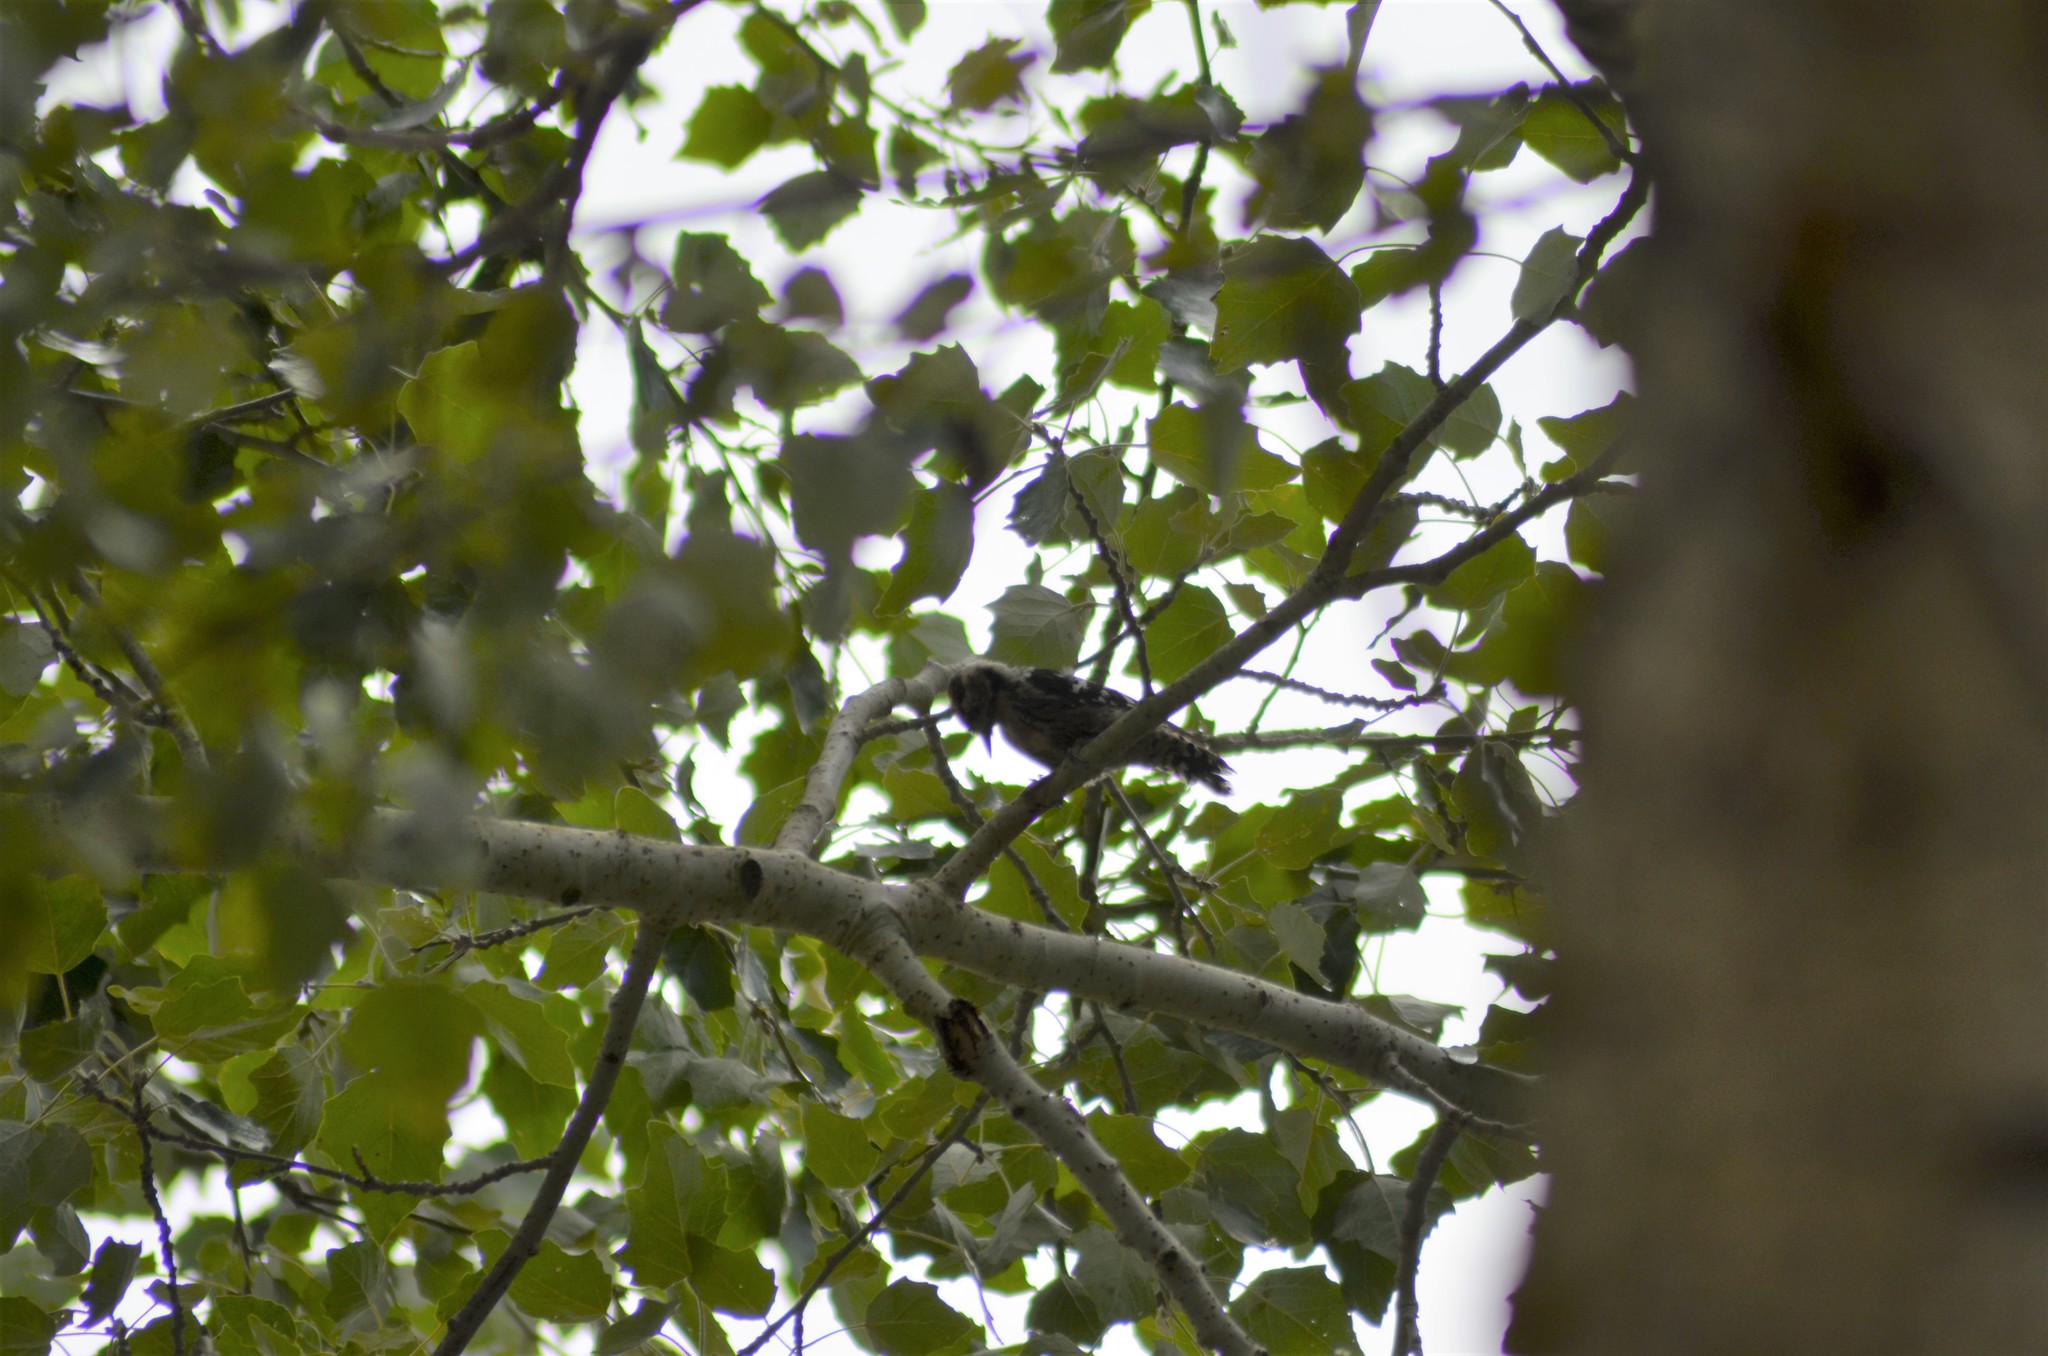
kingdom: Animalia
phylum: Chordata
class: Aves
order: Piciformes
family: Picidae
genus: Dryobates
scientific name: Dryobates minor
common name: Lesser spotted woodpecker
